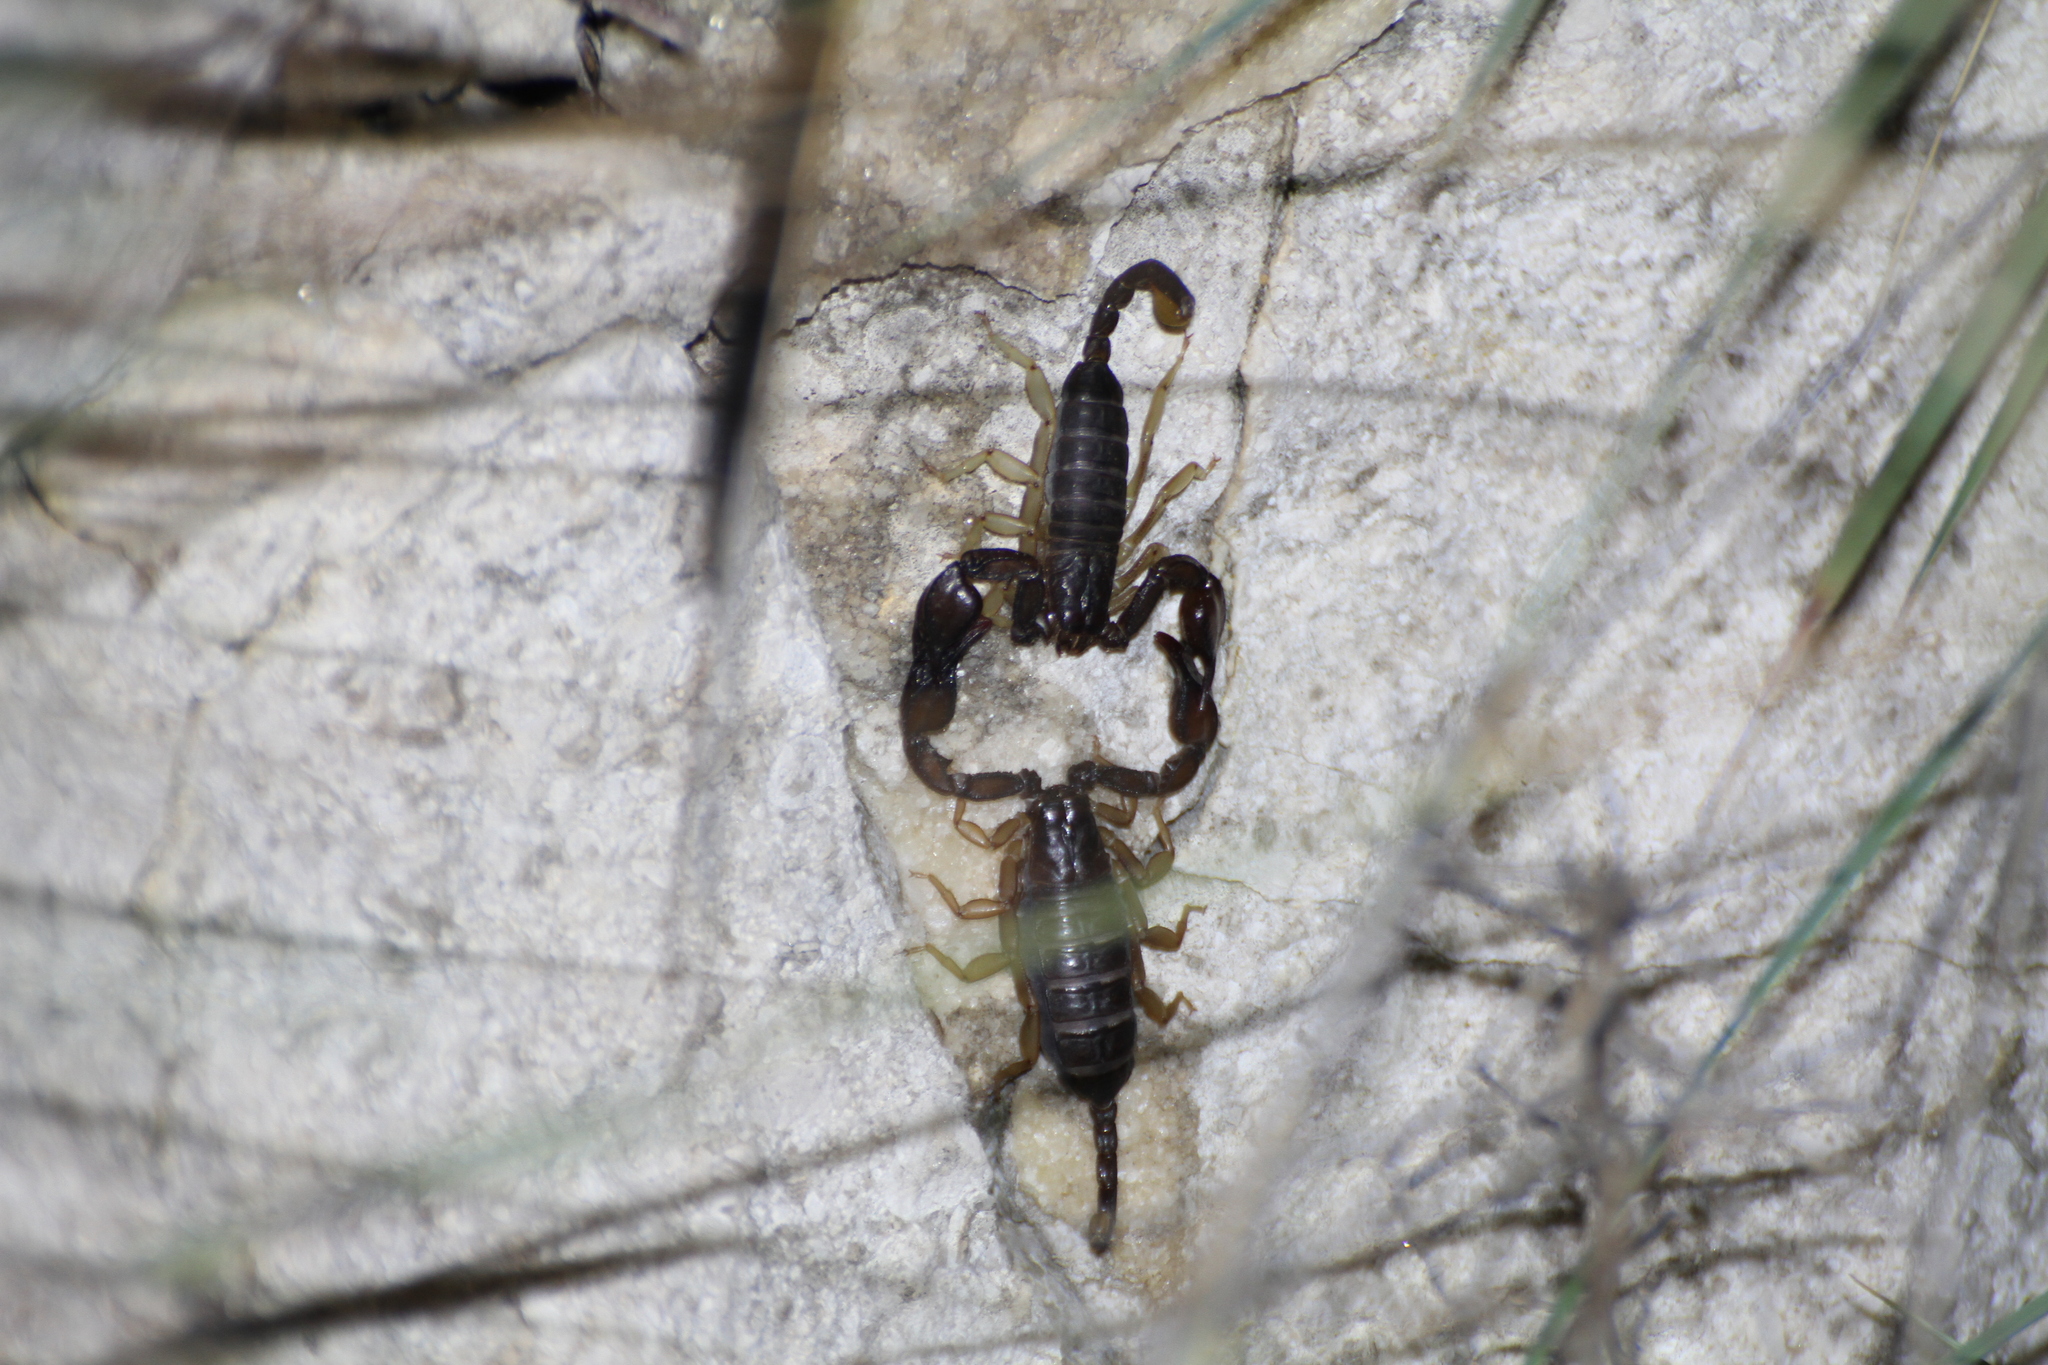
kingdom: Animalia
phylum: Arthropoda
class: Arachnida
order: Scorpiones
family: Euscorpiidae
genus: Euscorpius
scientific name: Euscorpius
